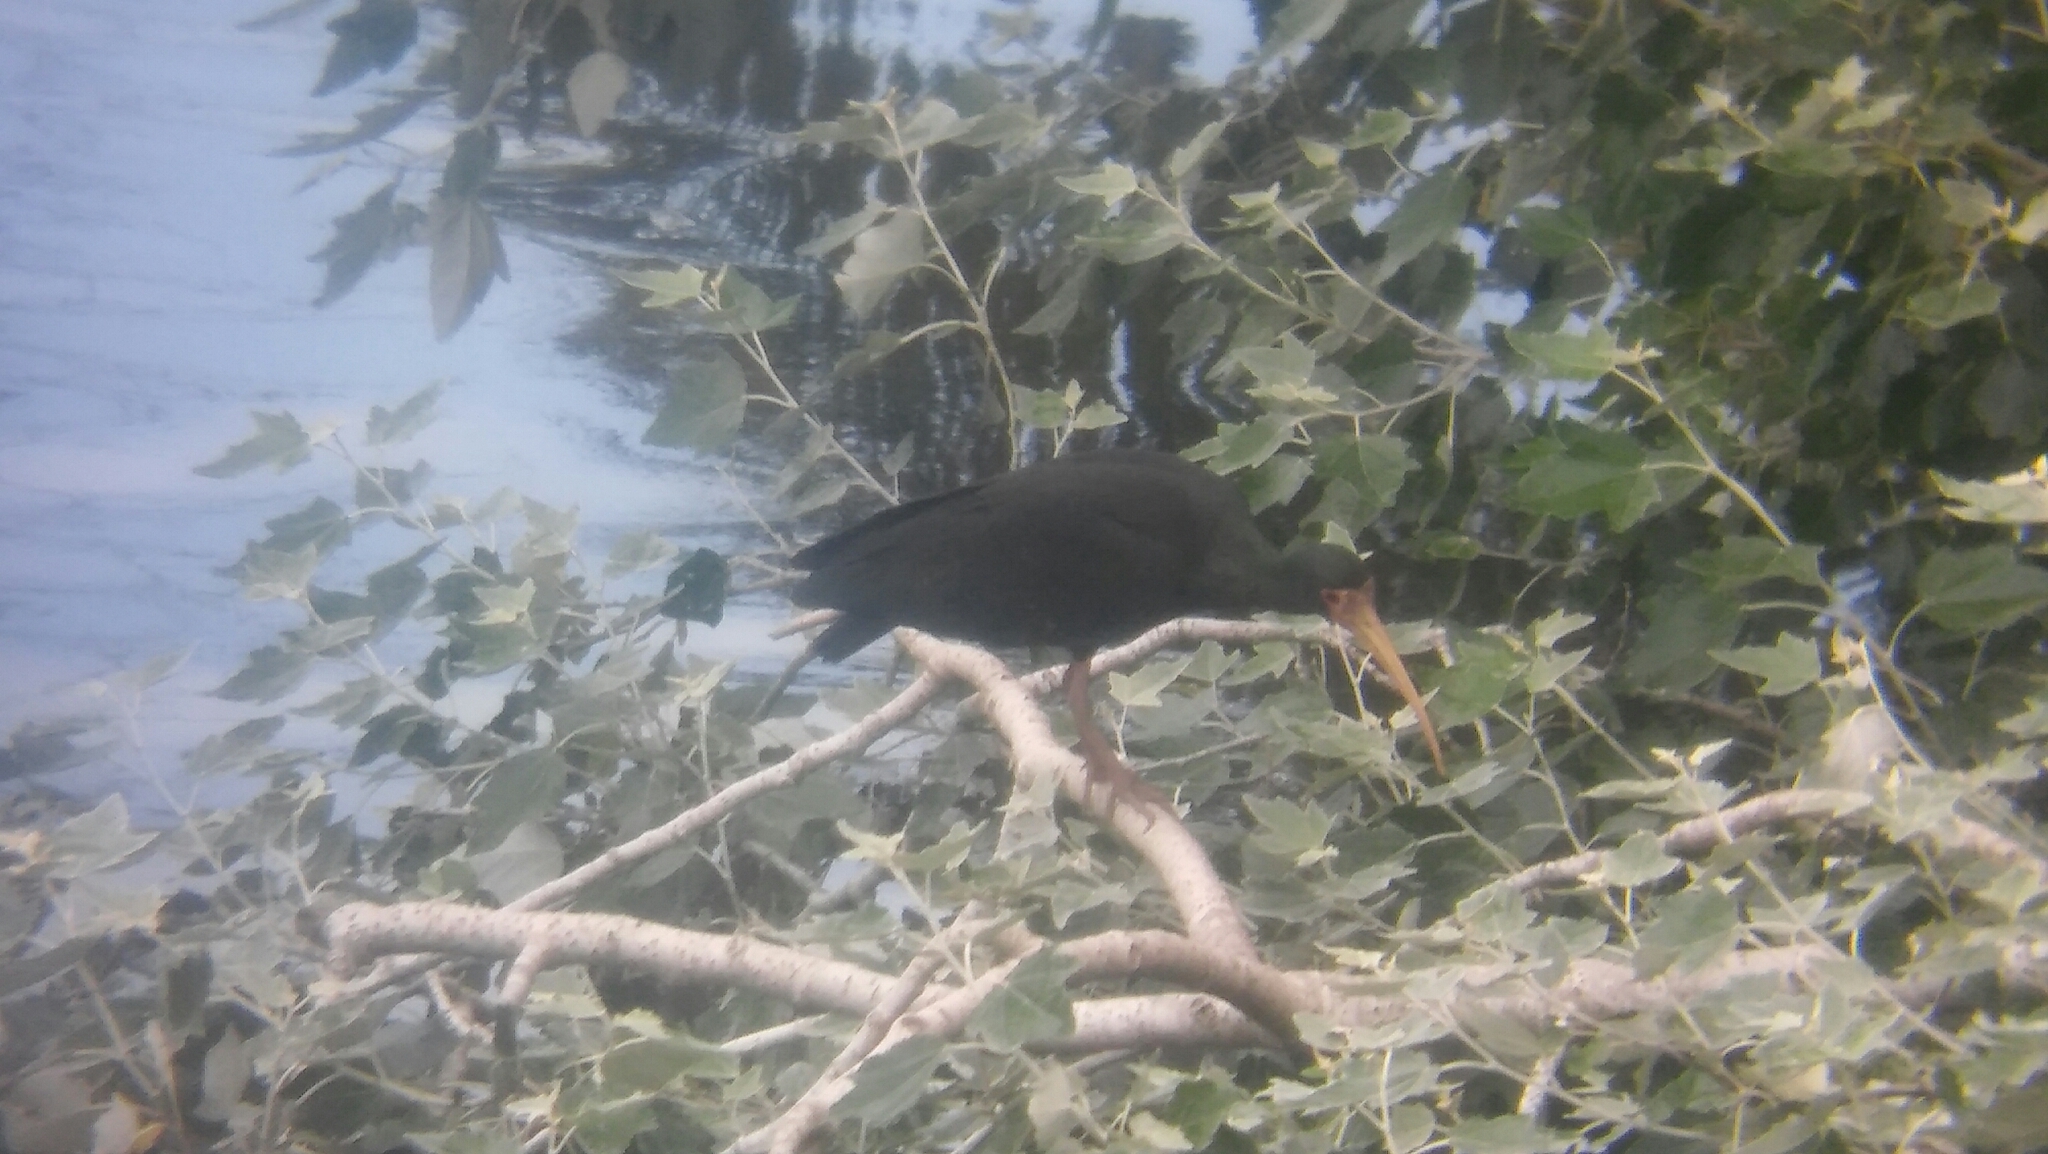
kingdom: Animalia
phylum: Chordata
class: Aves
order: Pelecaniformes
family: Threskiornithidae
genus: Phimosus
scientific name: Phimosus infuscatus
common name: Bare-faced ibis
